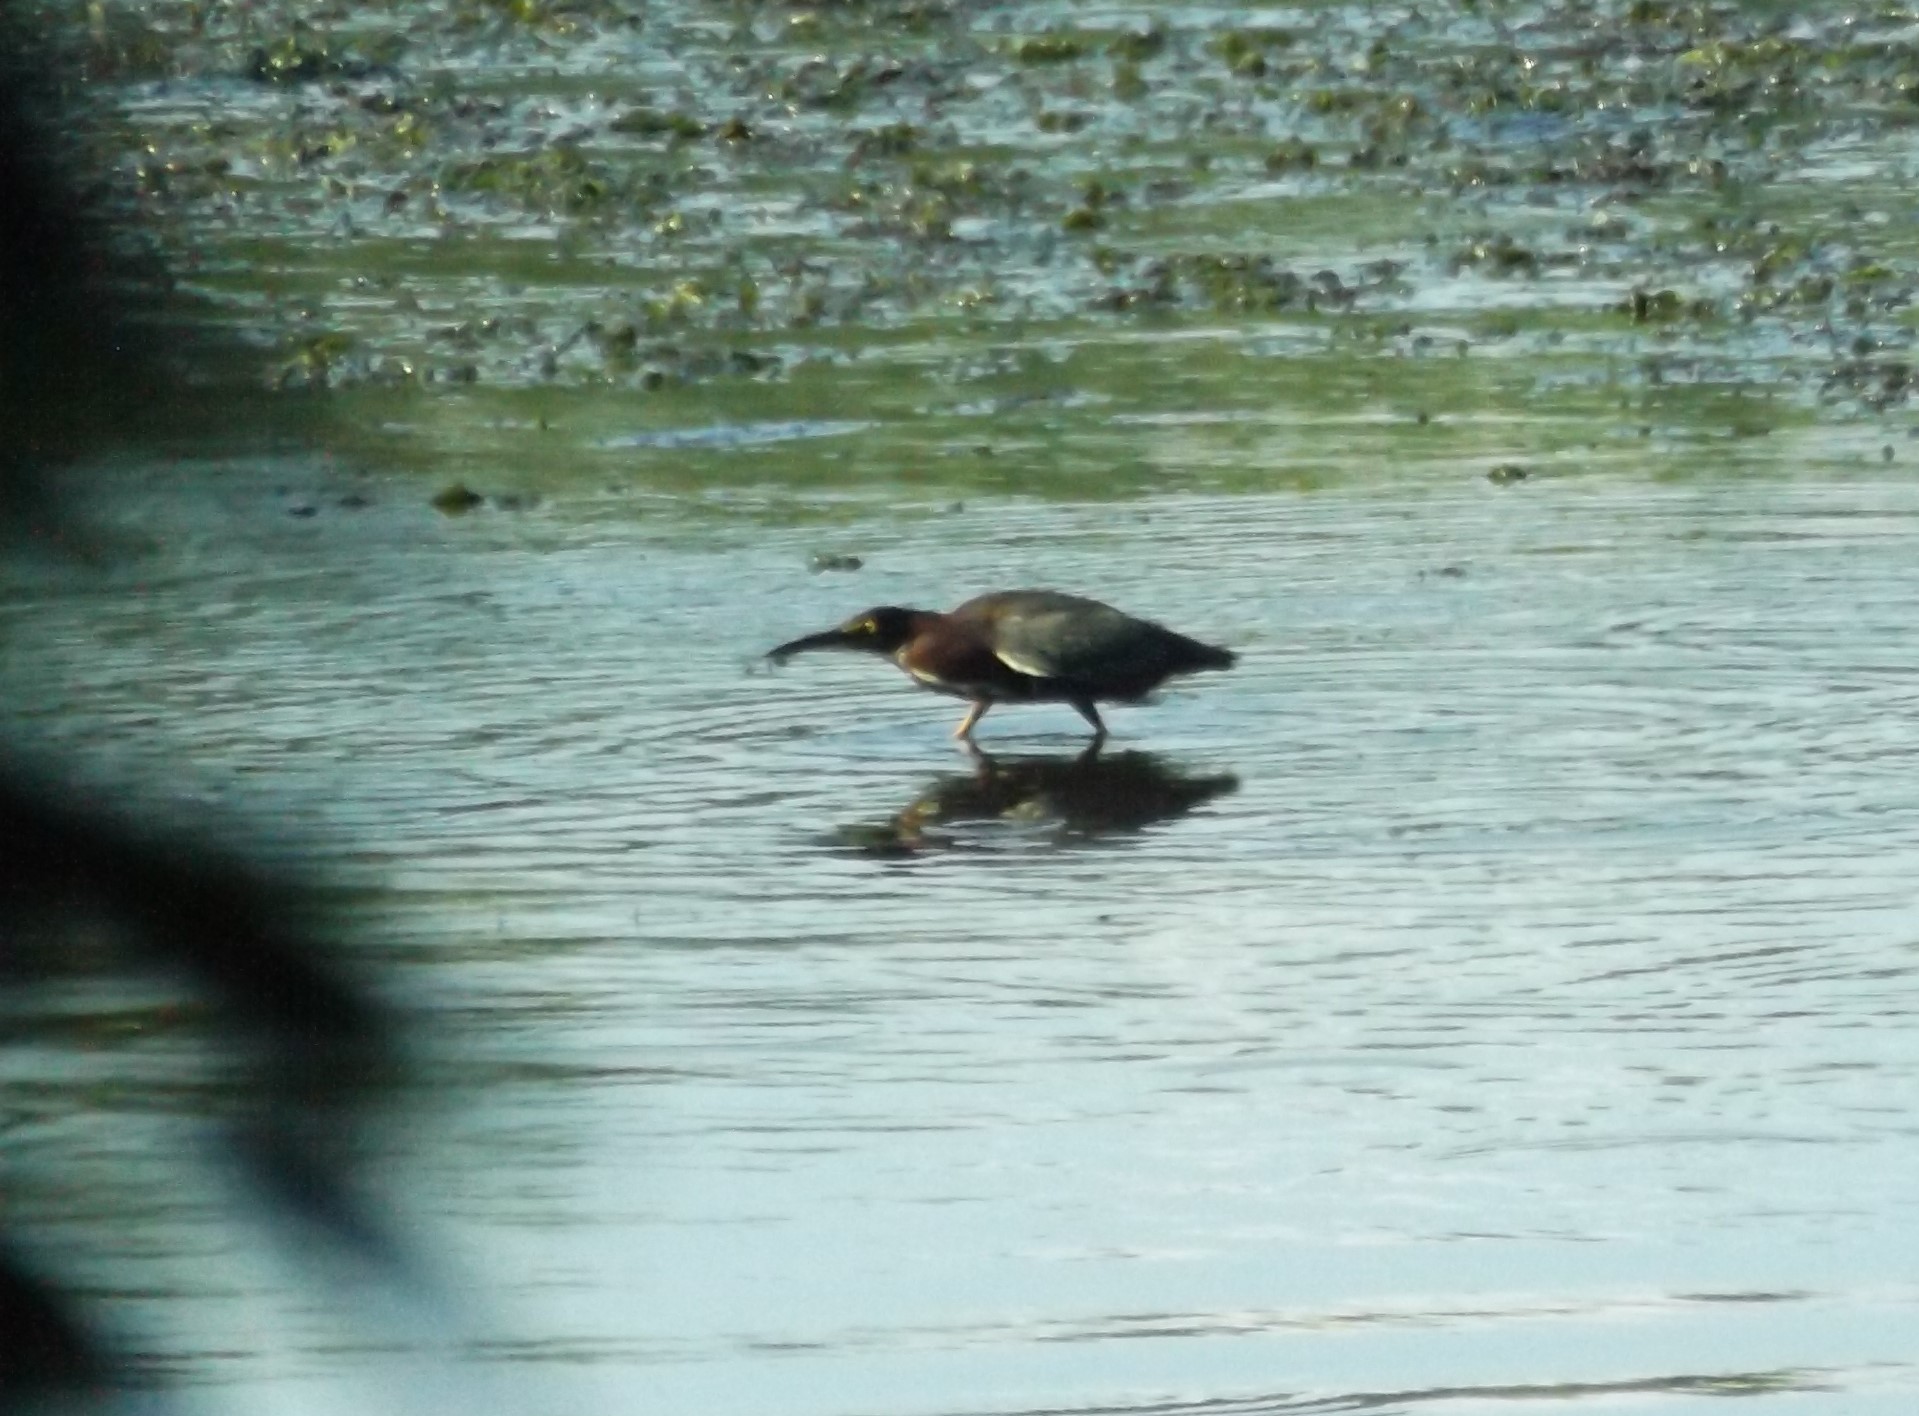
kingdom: Animalia
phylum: Chordata
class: Aves
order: Pelecaniformes
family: Ardeidae
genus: Butorides
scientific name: Butorides virescens
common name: Green heron
